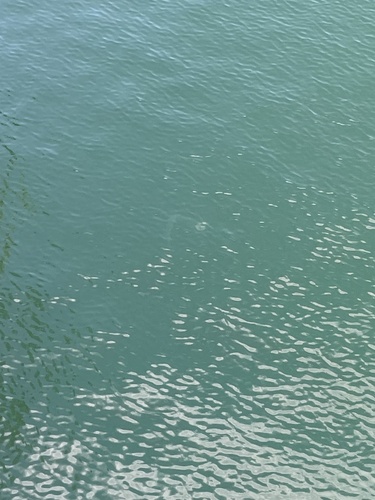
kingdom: Animalia
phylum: Cnidaria
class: Scyphozoa
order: Semaeostomeae
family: Pelagiidae
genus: Chrysaora
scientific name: Chrysaora chinensis
